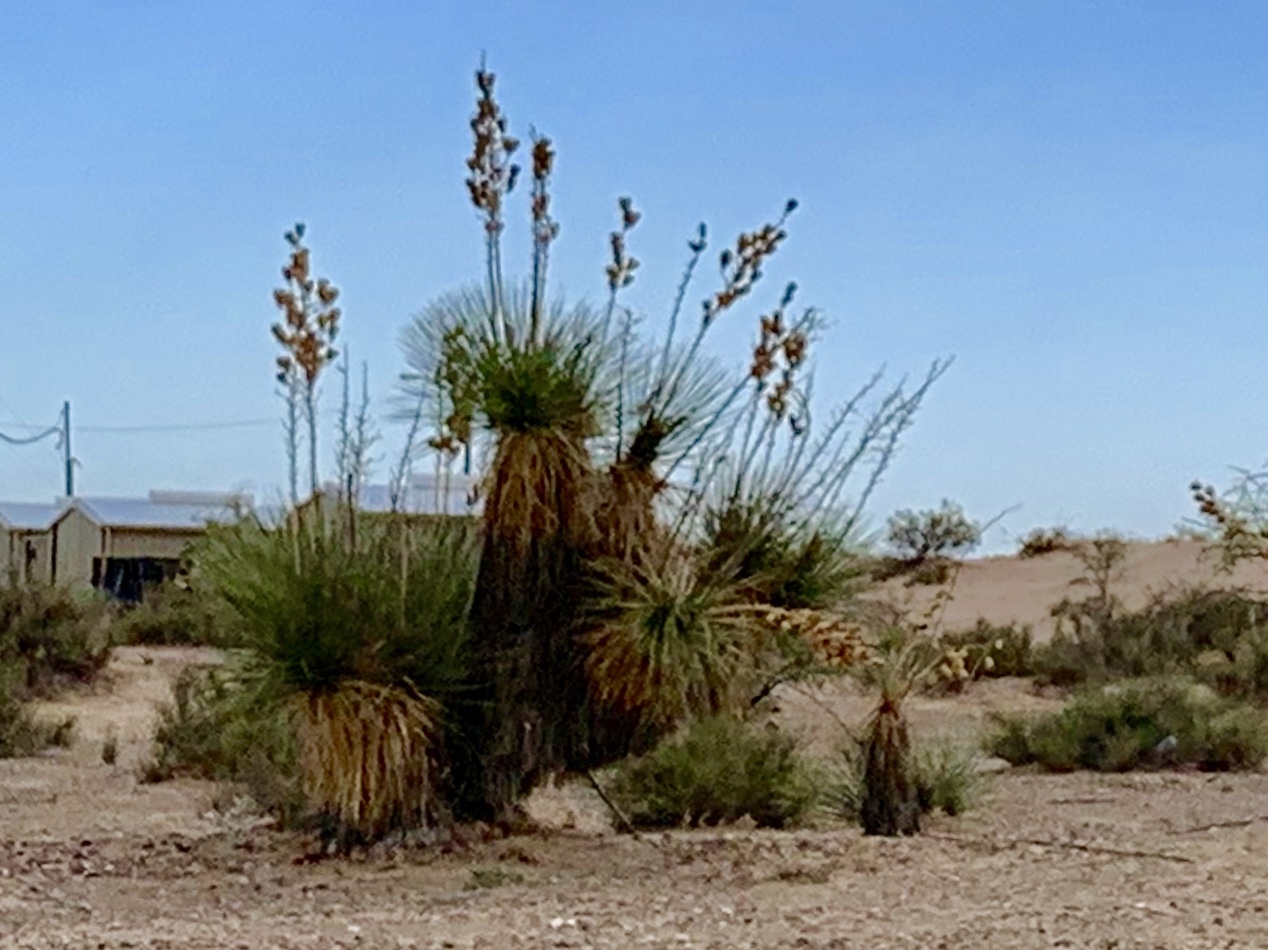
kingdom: Plantae
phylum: Tracheophyta
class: Liliopsida
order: Asparagales
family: Asparagaceae
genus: Yucca
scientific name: Yucca elata
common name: Palmella
